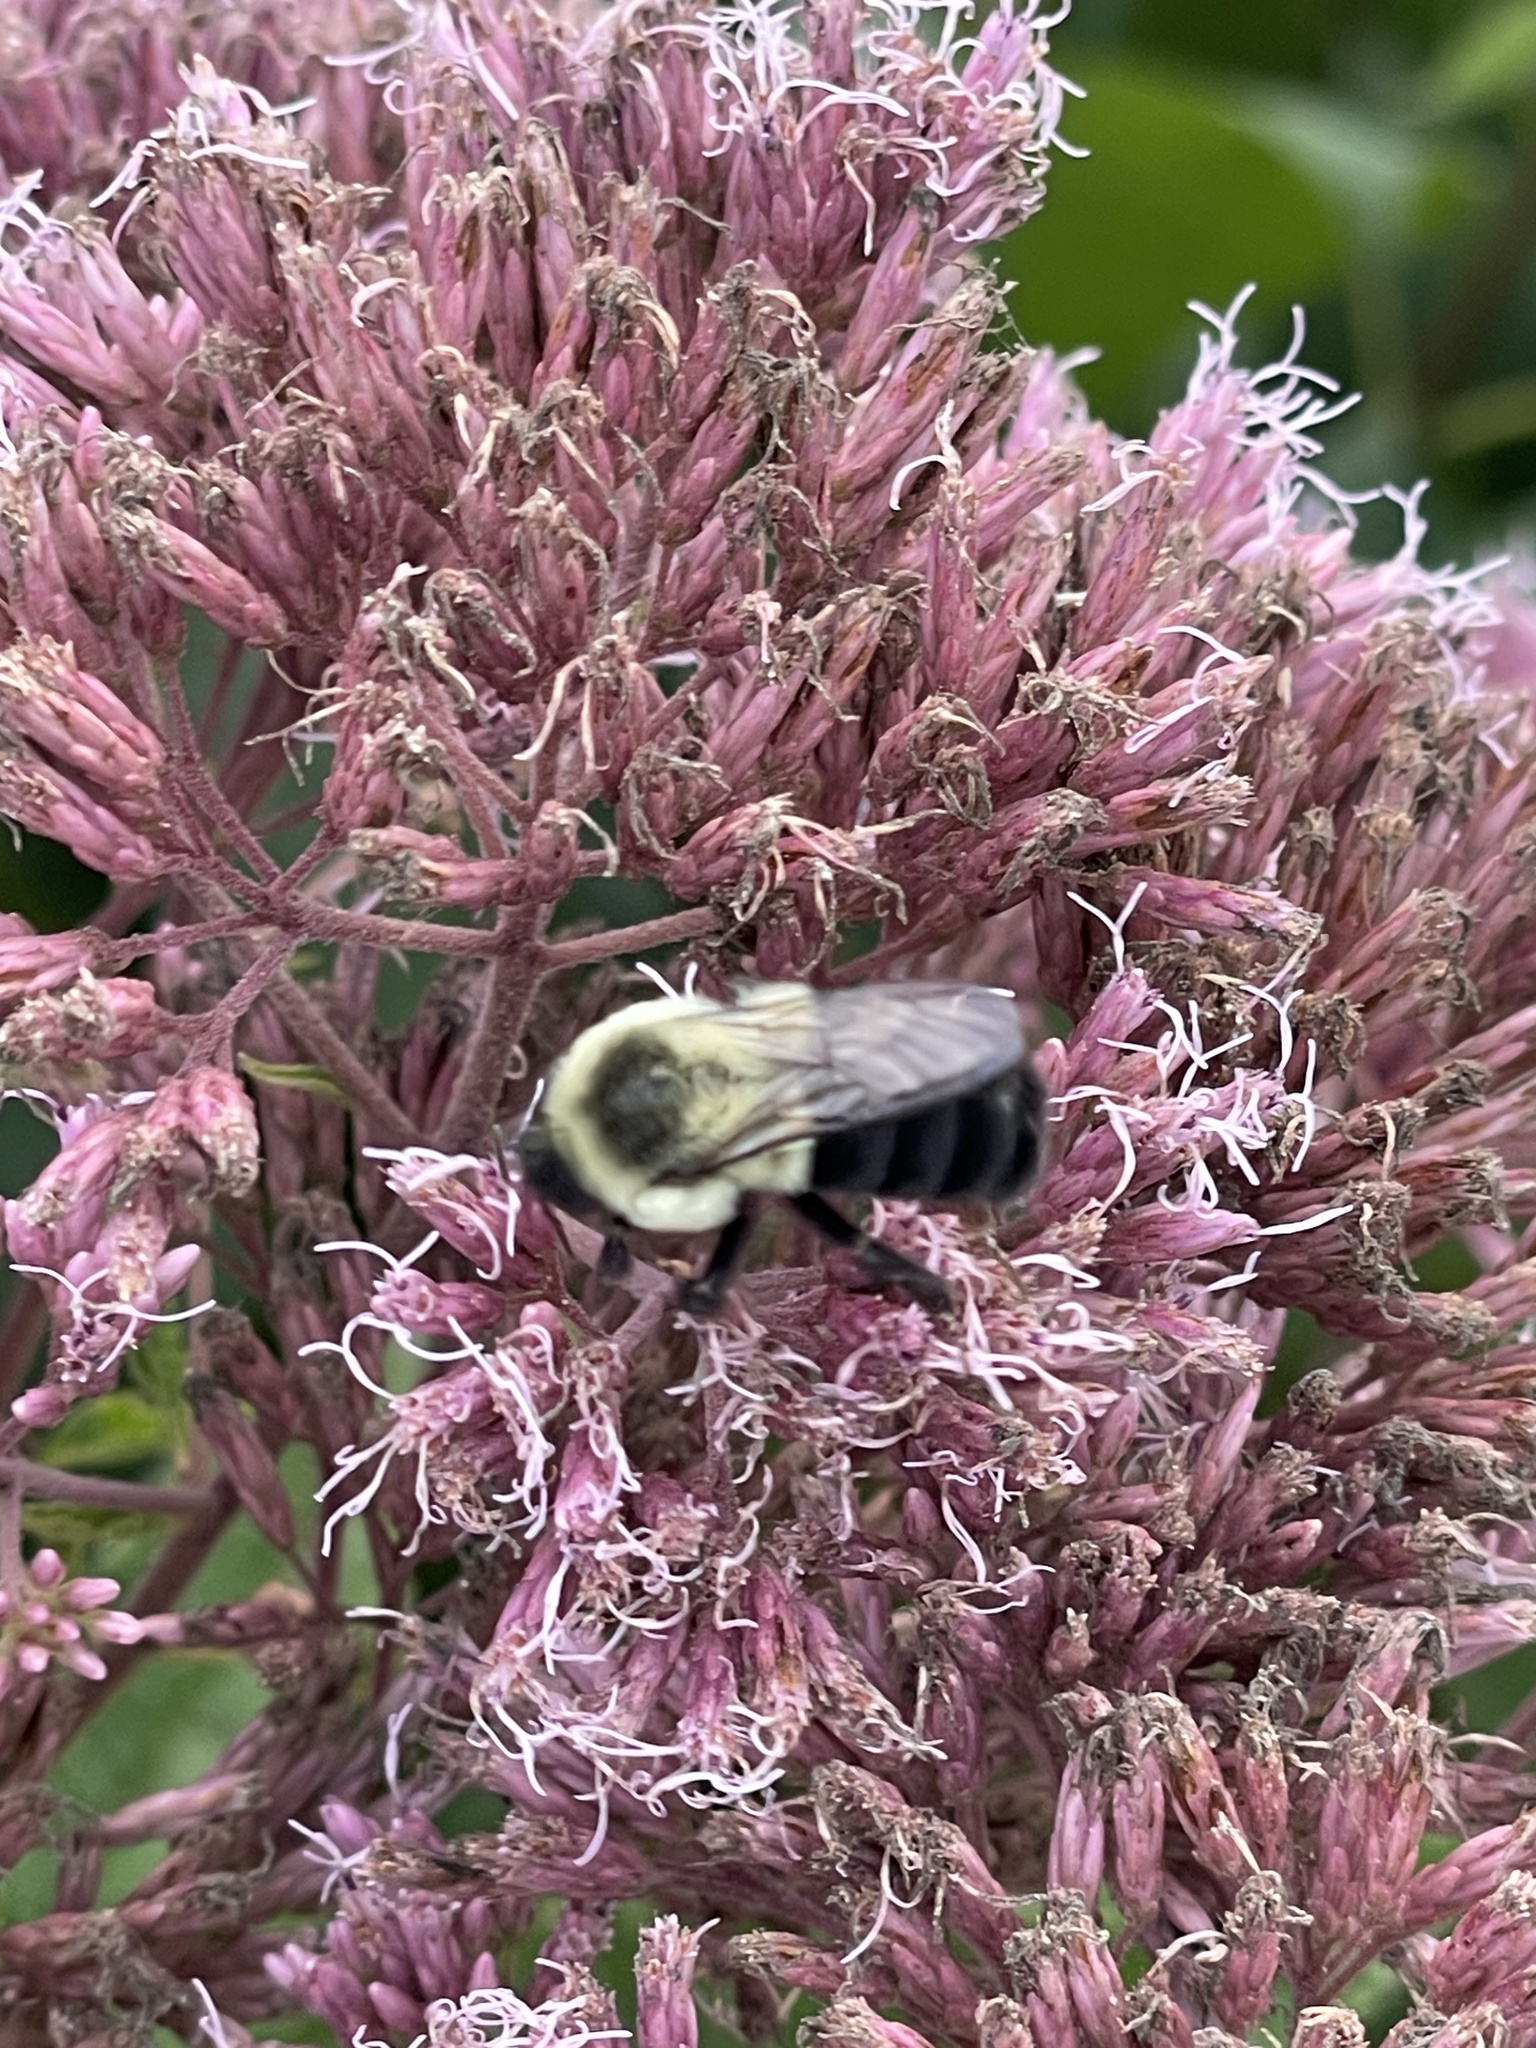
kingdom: Animalia
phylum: Arthropoda
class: Insecta
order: Hymenoptera
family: Apidae
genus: Bombus
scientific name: Bombus impatiens
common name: Common eastern bumble bee
